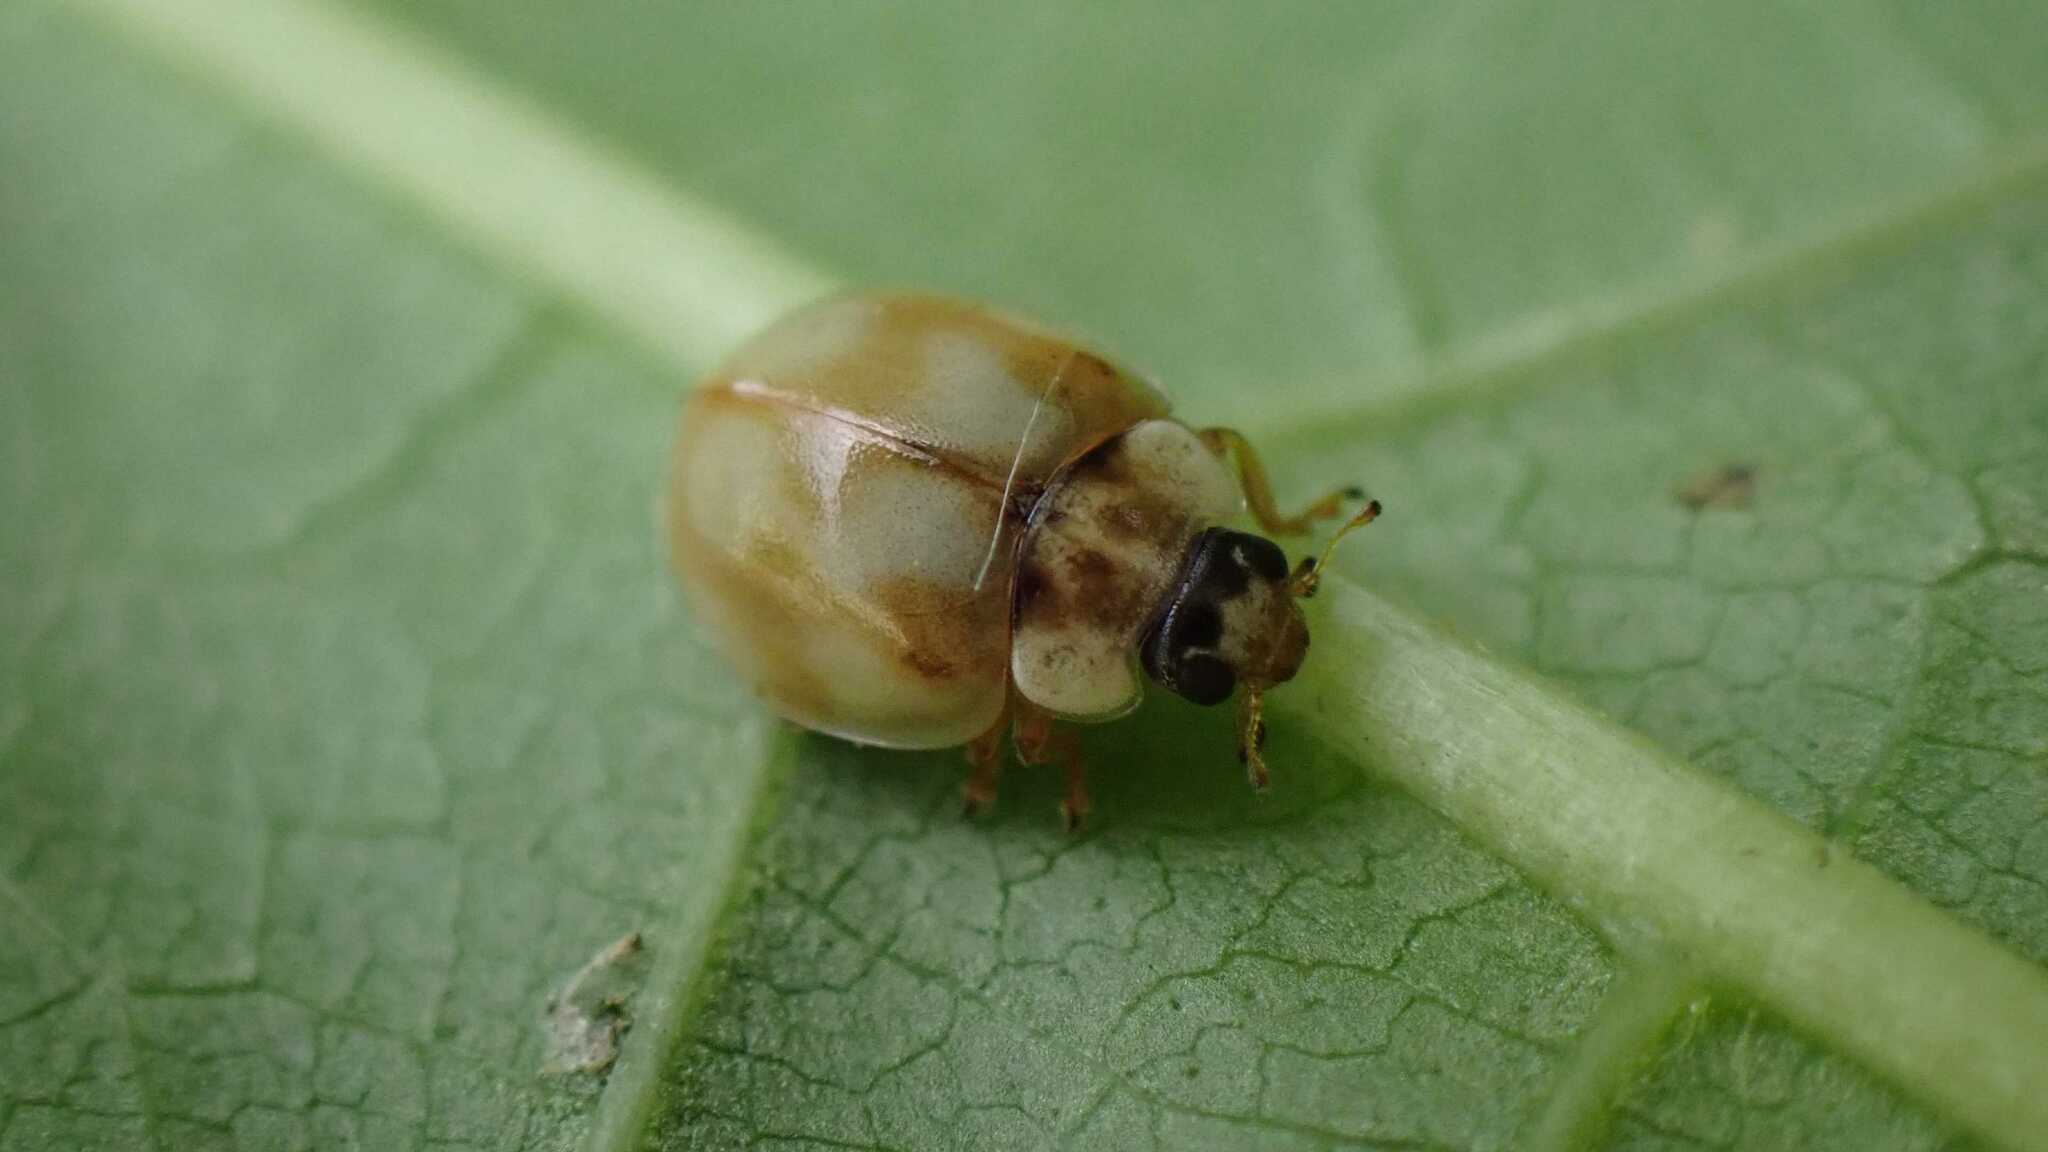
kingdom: Animalia
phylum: Arthropoda
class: Insecta
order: Coleoptera
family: Coccinellidae
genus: Adalia
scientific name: Adalia decempunctata
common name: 10-spot ladybird
